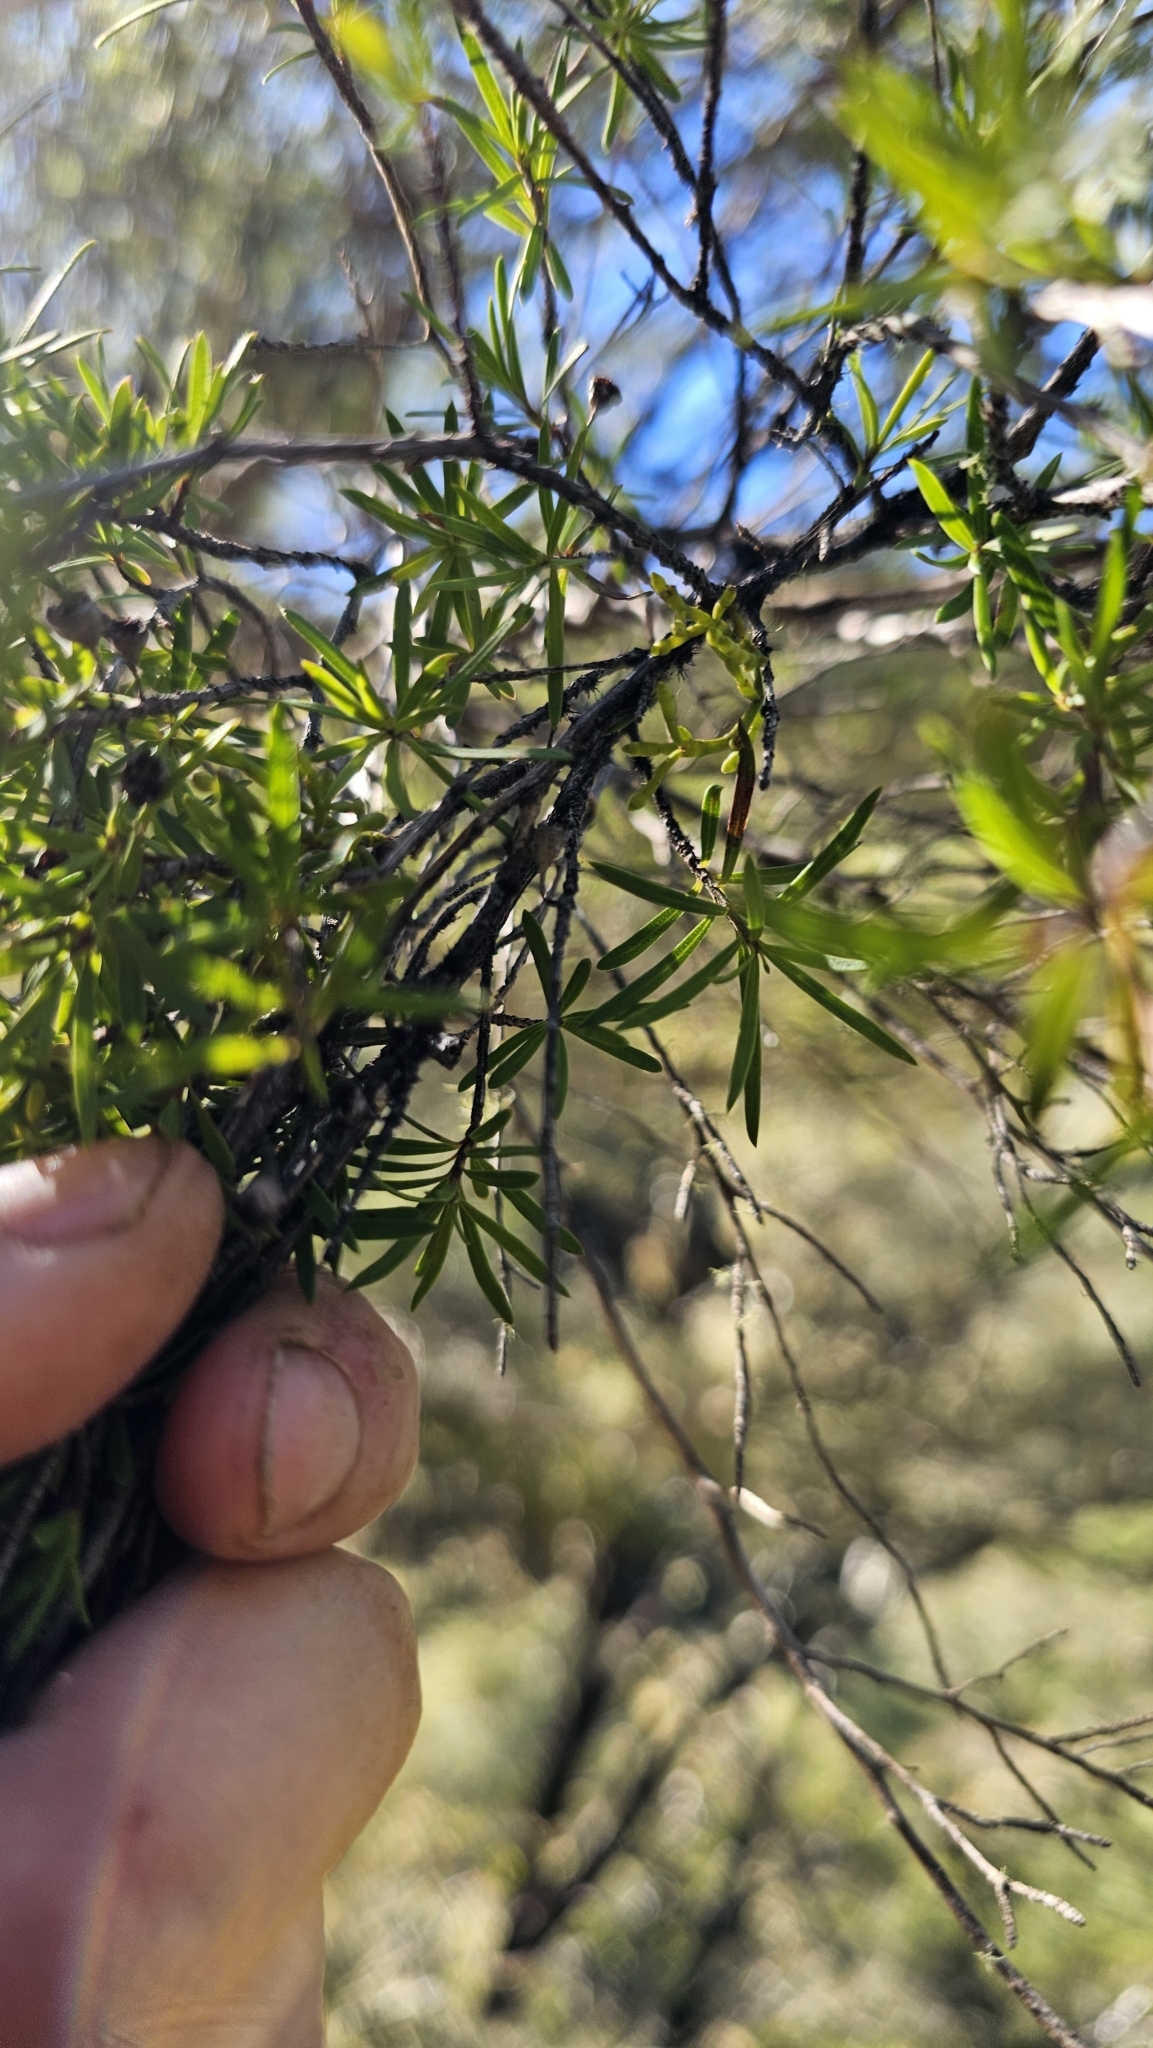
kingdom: Plantae
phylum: Tracheophyta
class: Magnoliopsida
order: Santalales
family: Viscaceae
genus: Korthalsella
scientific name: Korthalsella salicornioides
